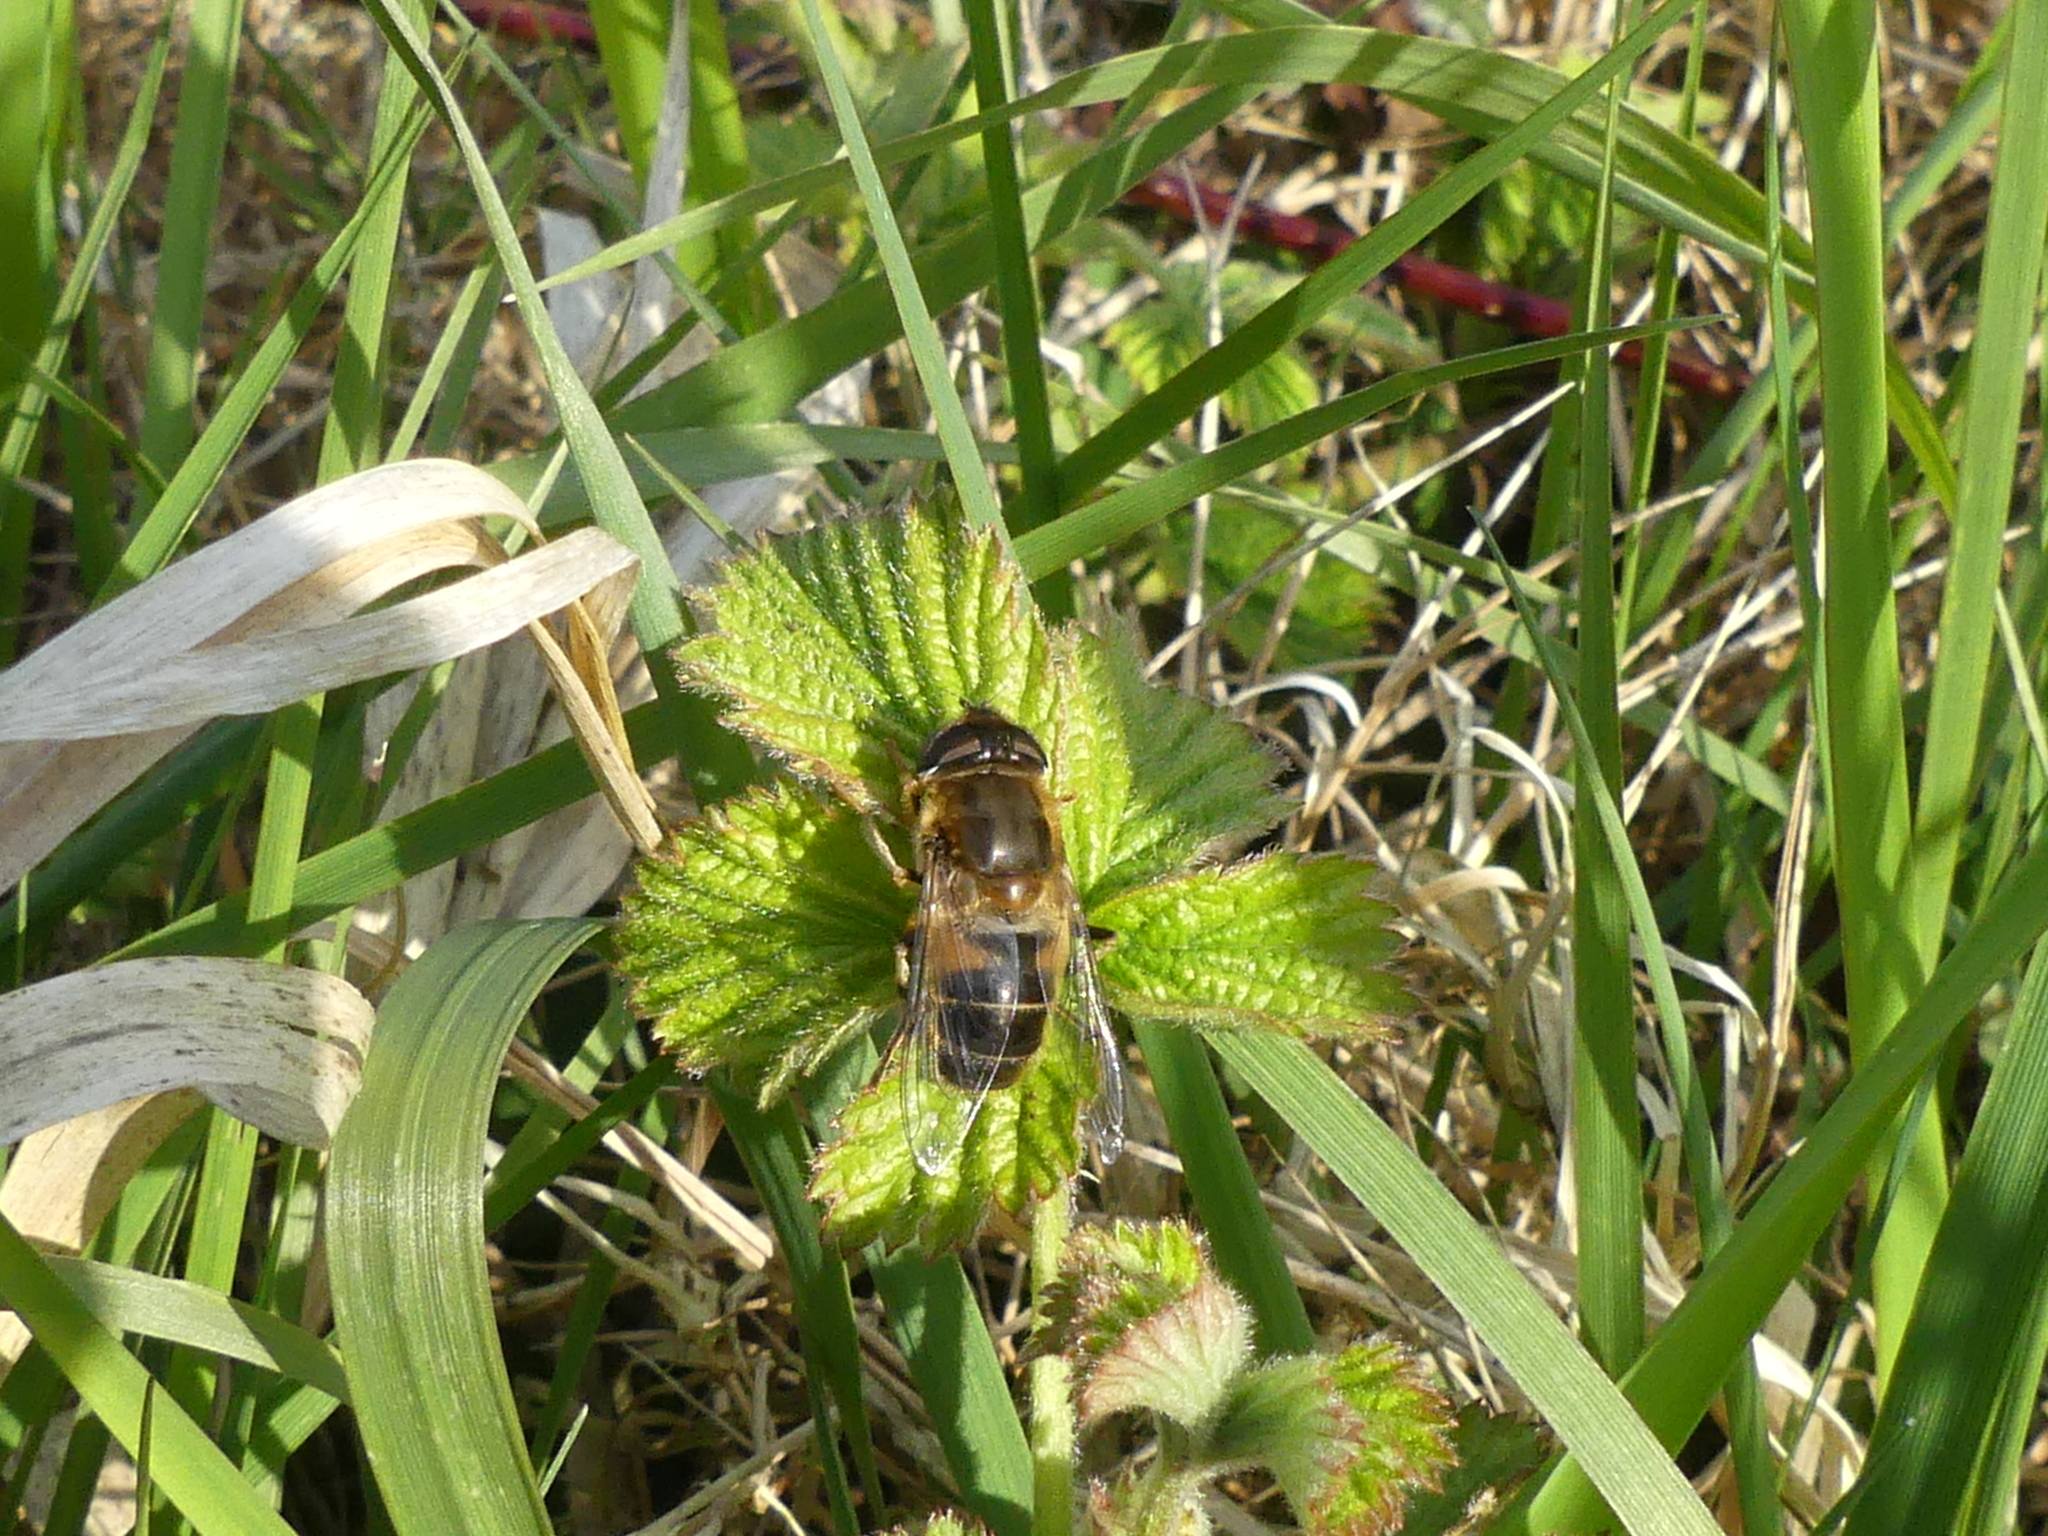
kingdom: Animalia
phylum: Arthropoda
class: Insecta
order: Diptera
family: Syrphidae
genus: Eristalis
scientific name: Eristalis pertinax
